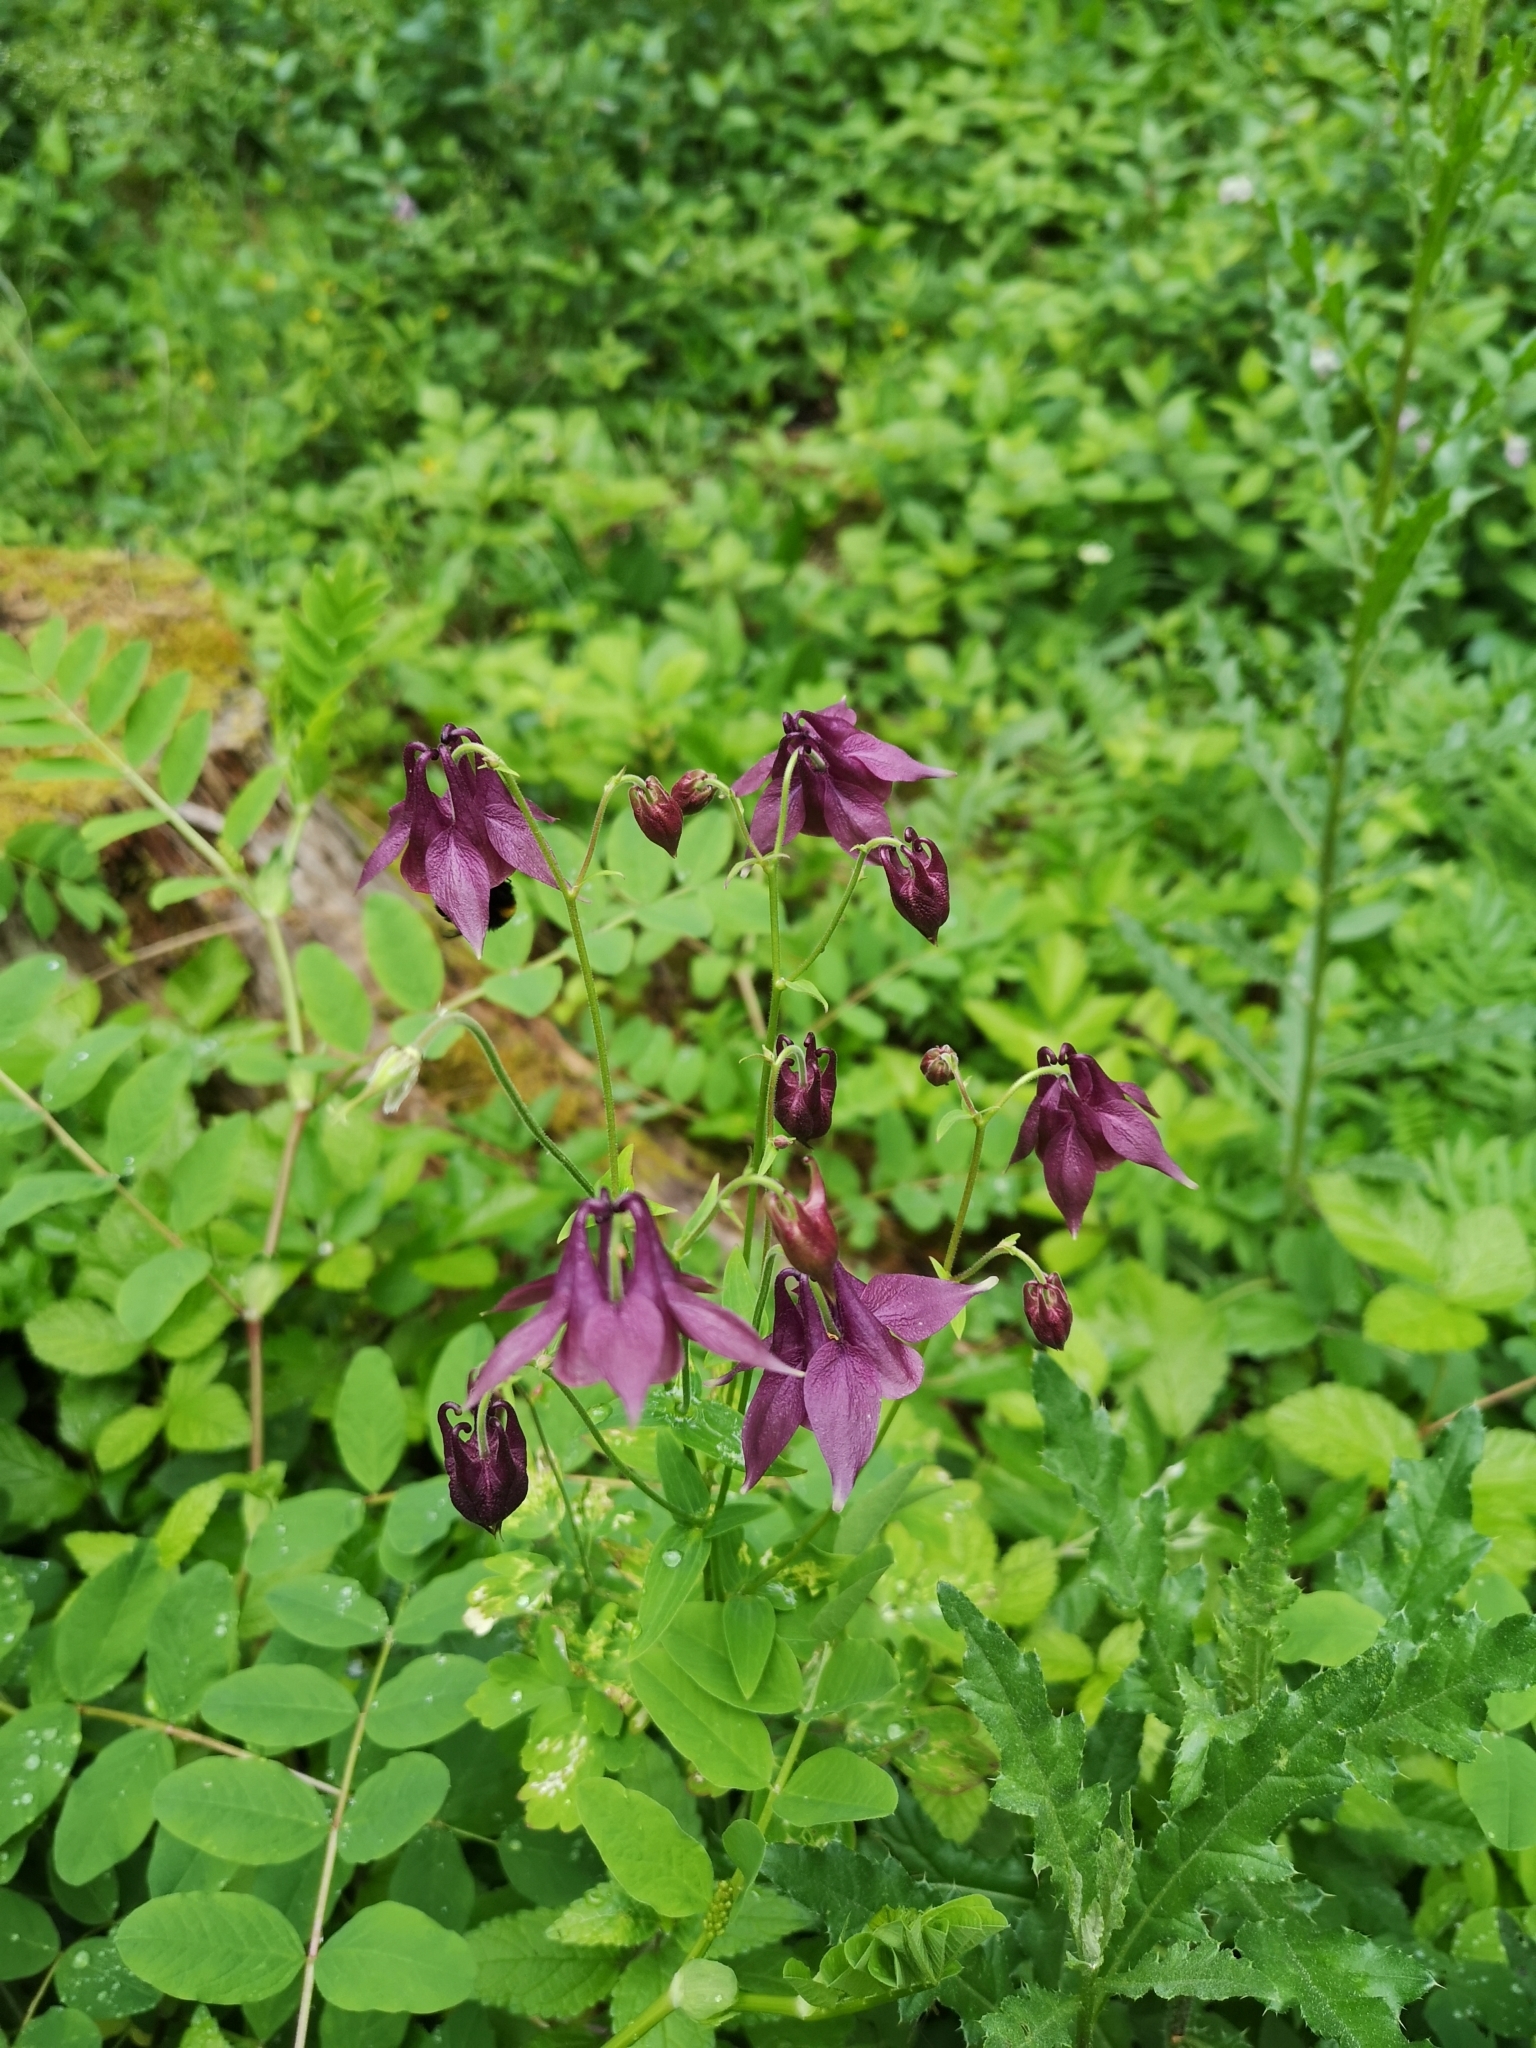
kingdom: Plantae
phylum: Tracheophyta
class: Magnoliopsida
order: Ranunculales
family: Ranunculaceae
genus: Aquilegia
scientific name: Aquilegia atrata
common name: Dark columbine
